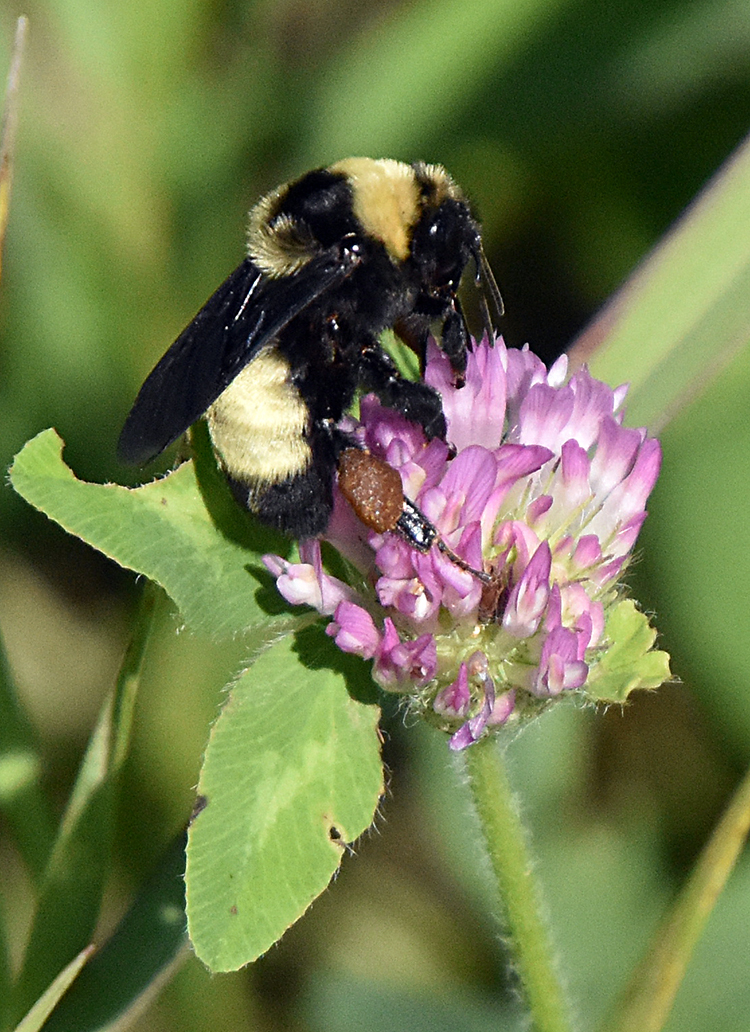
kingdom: Animalia
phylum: Arthropoda
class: Insecta
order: Hymenoptera
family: Apidae
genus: Bombus
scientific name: Bombus auricomus
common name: Black and gold bumble bee
